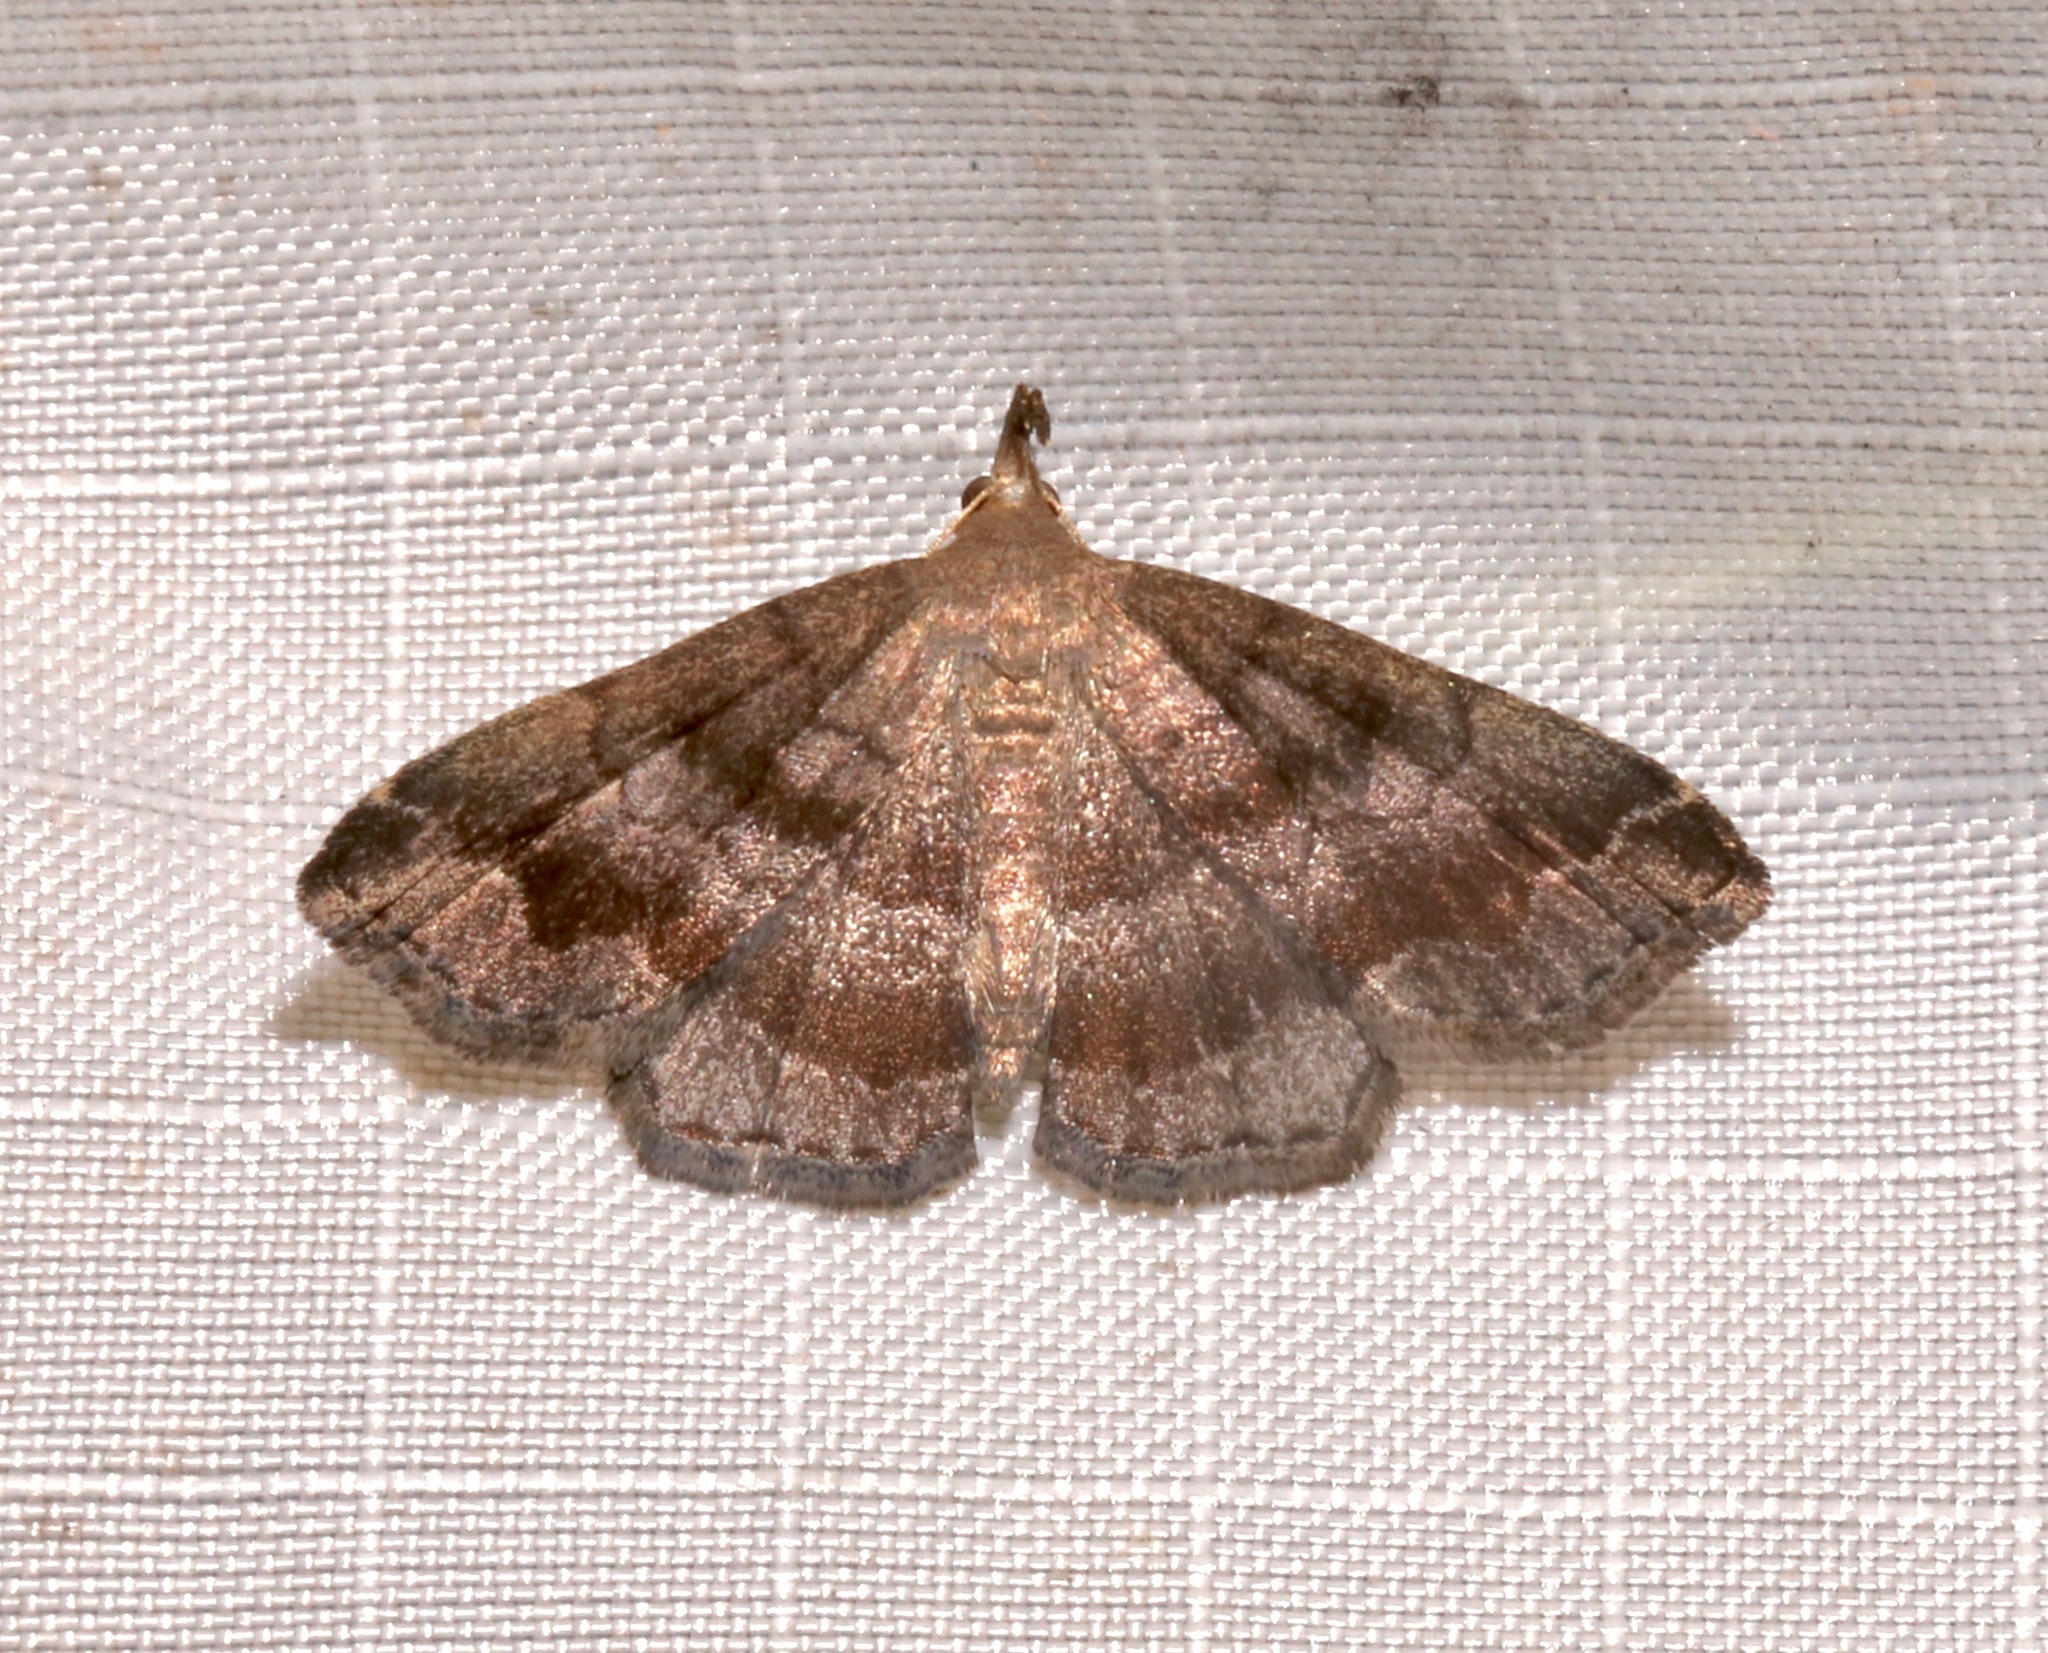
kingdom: Animalia
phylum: Arthropoda
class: Insecta
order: Lepidoptera
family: Erebidae
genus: Phalaenostola
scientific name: Phalaenostola larentioides
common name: Black-banded owlet
